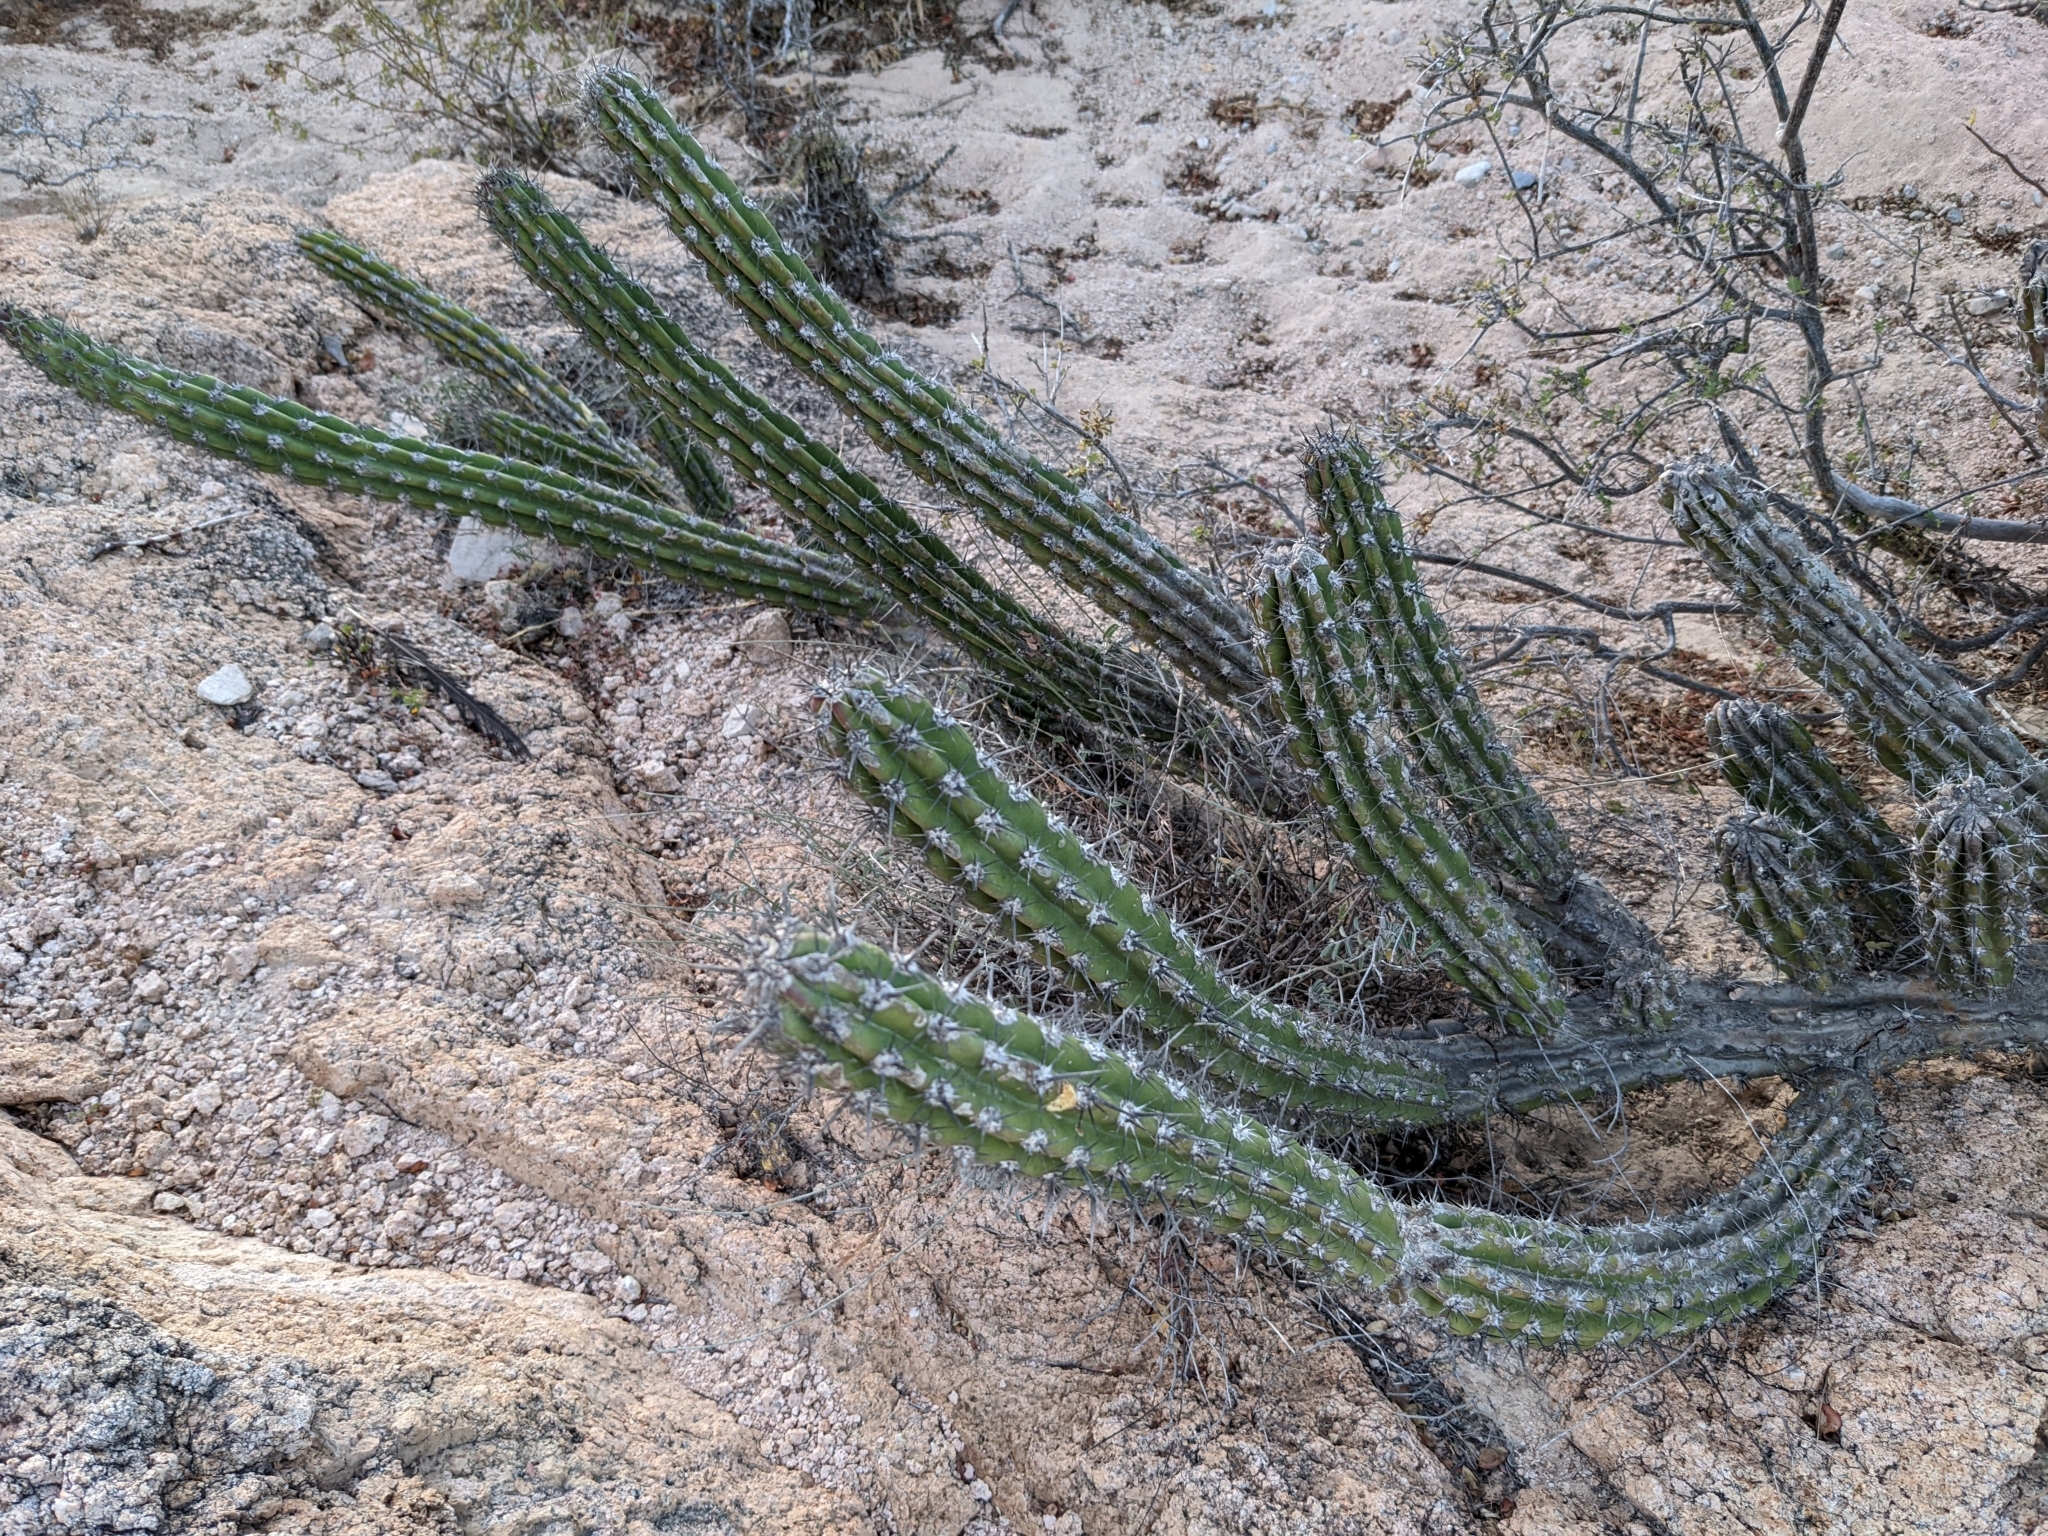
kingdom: Plantae
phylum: Tracheophyta
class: Magnoliopsida
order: Caryophyllales
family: Cactaceae
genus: Stenocereus
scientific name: Stenocereus gummosus
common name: Dagger cactus
